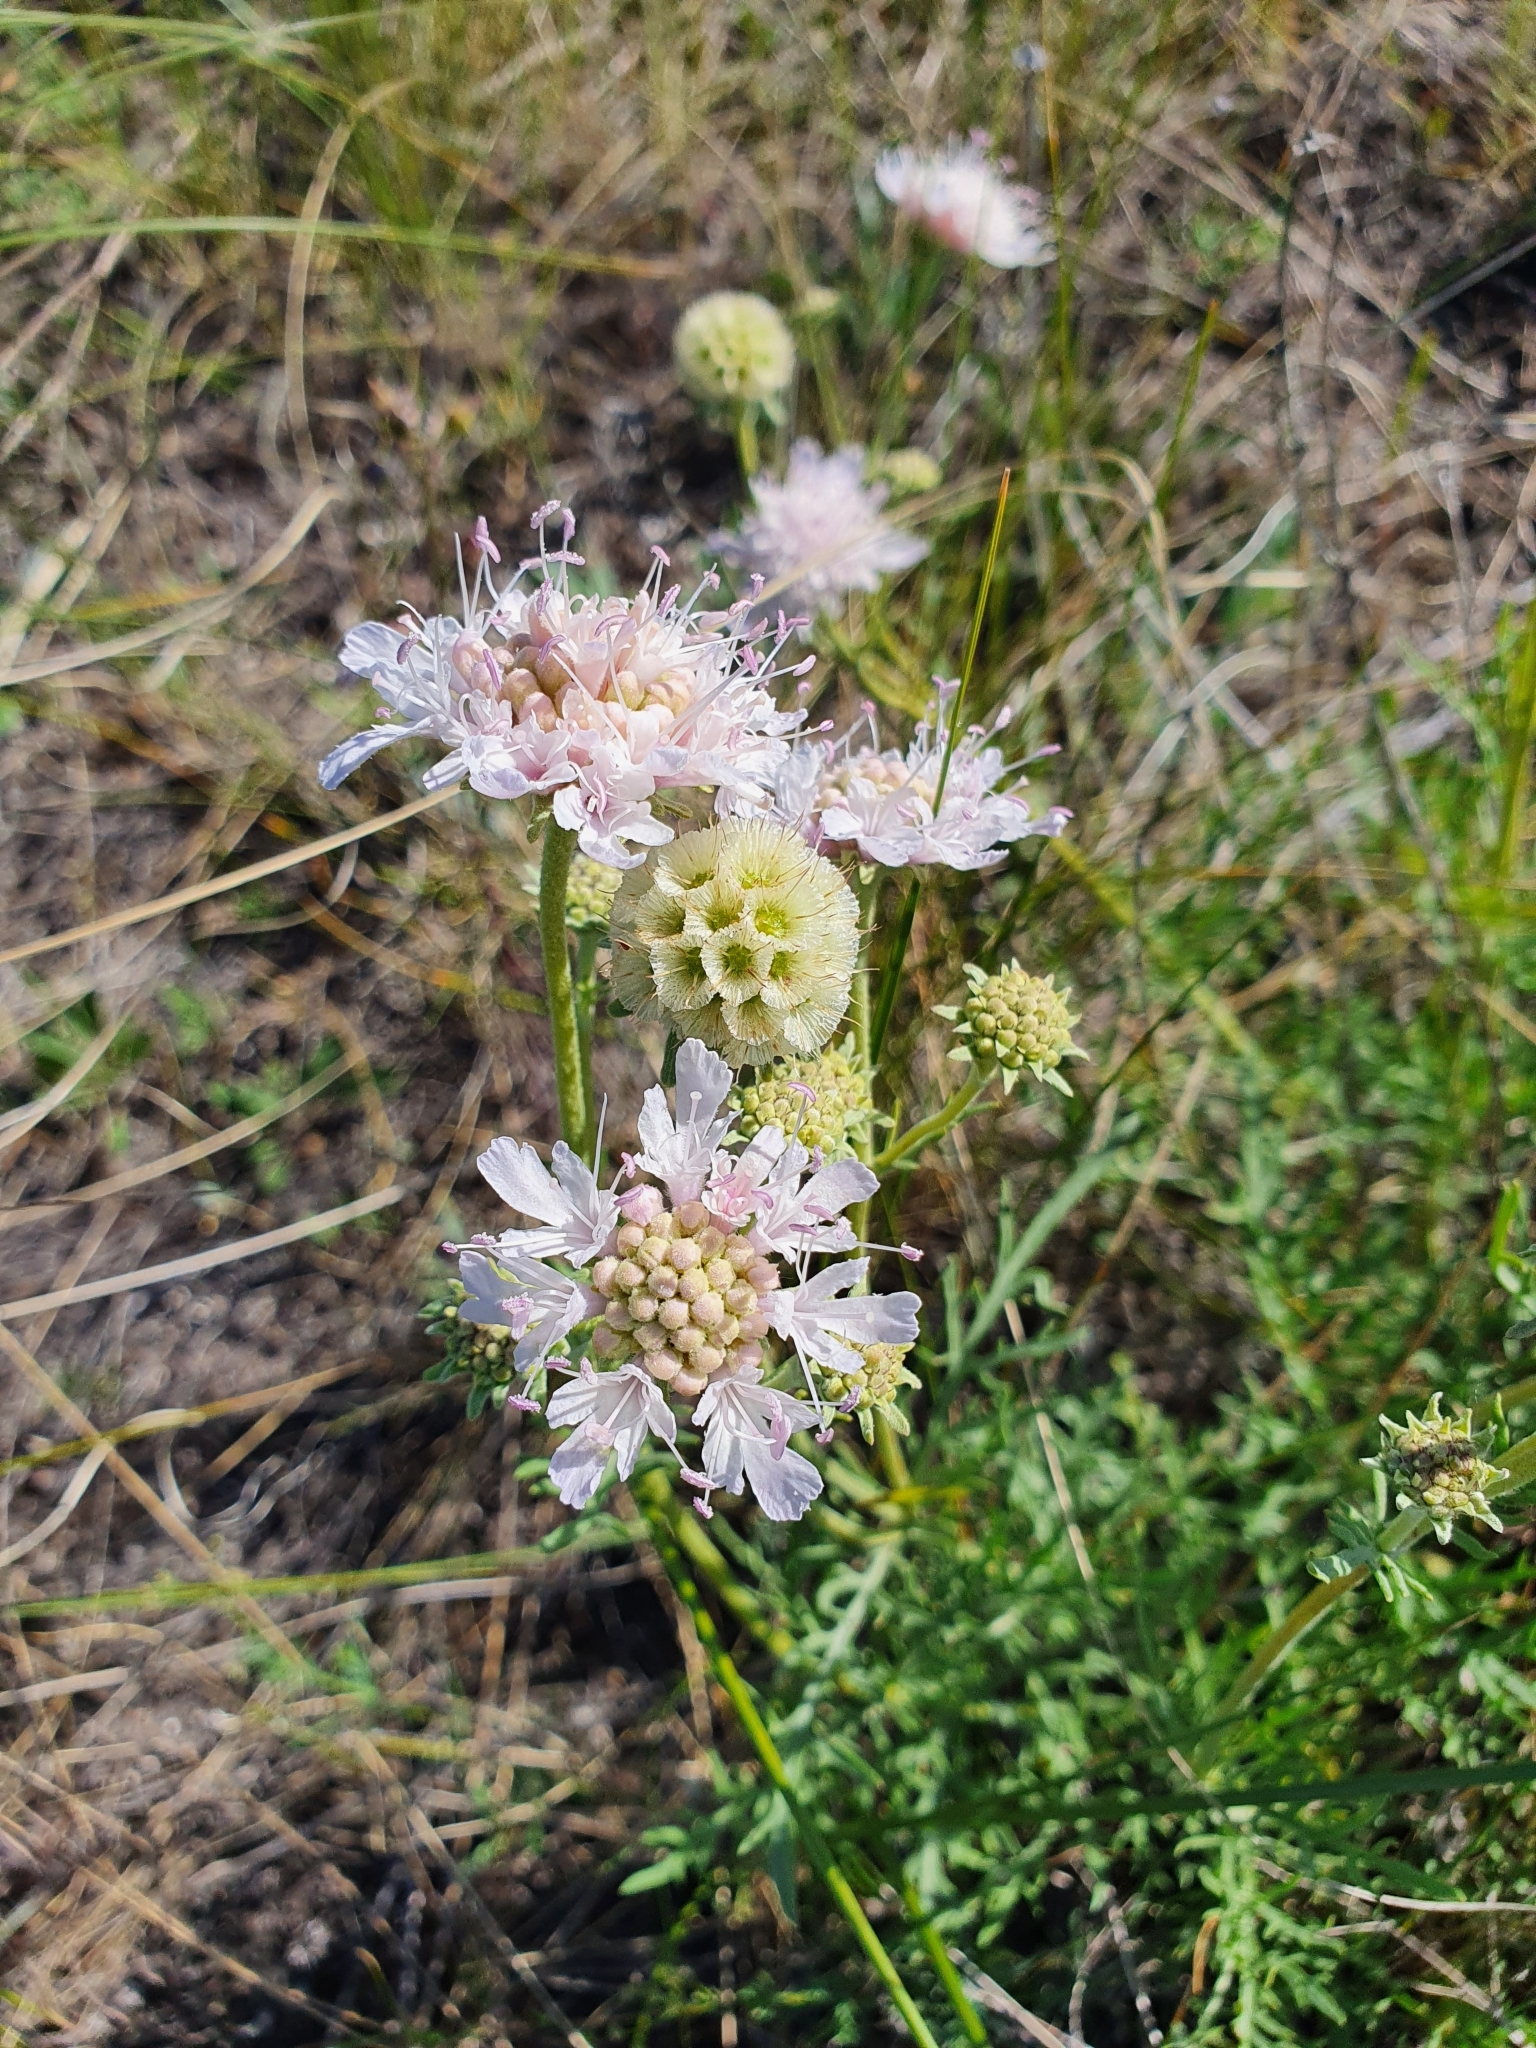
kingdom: Plantae
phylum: Tracheophyta
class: Magnoliopsida
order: Dipsacales
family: Caprifoliaceae
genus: Lomelosia
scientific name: Lomelosia isetensis
